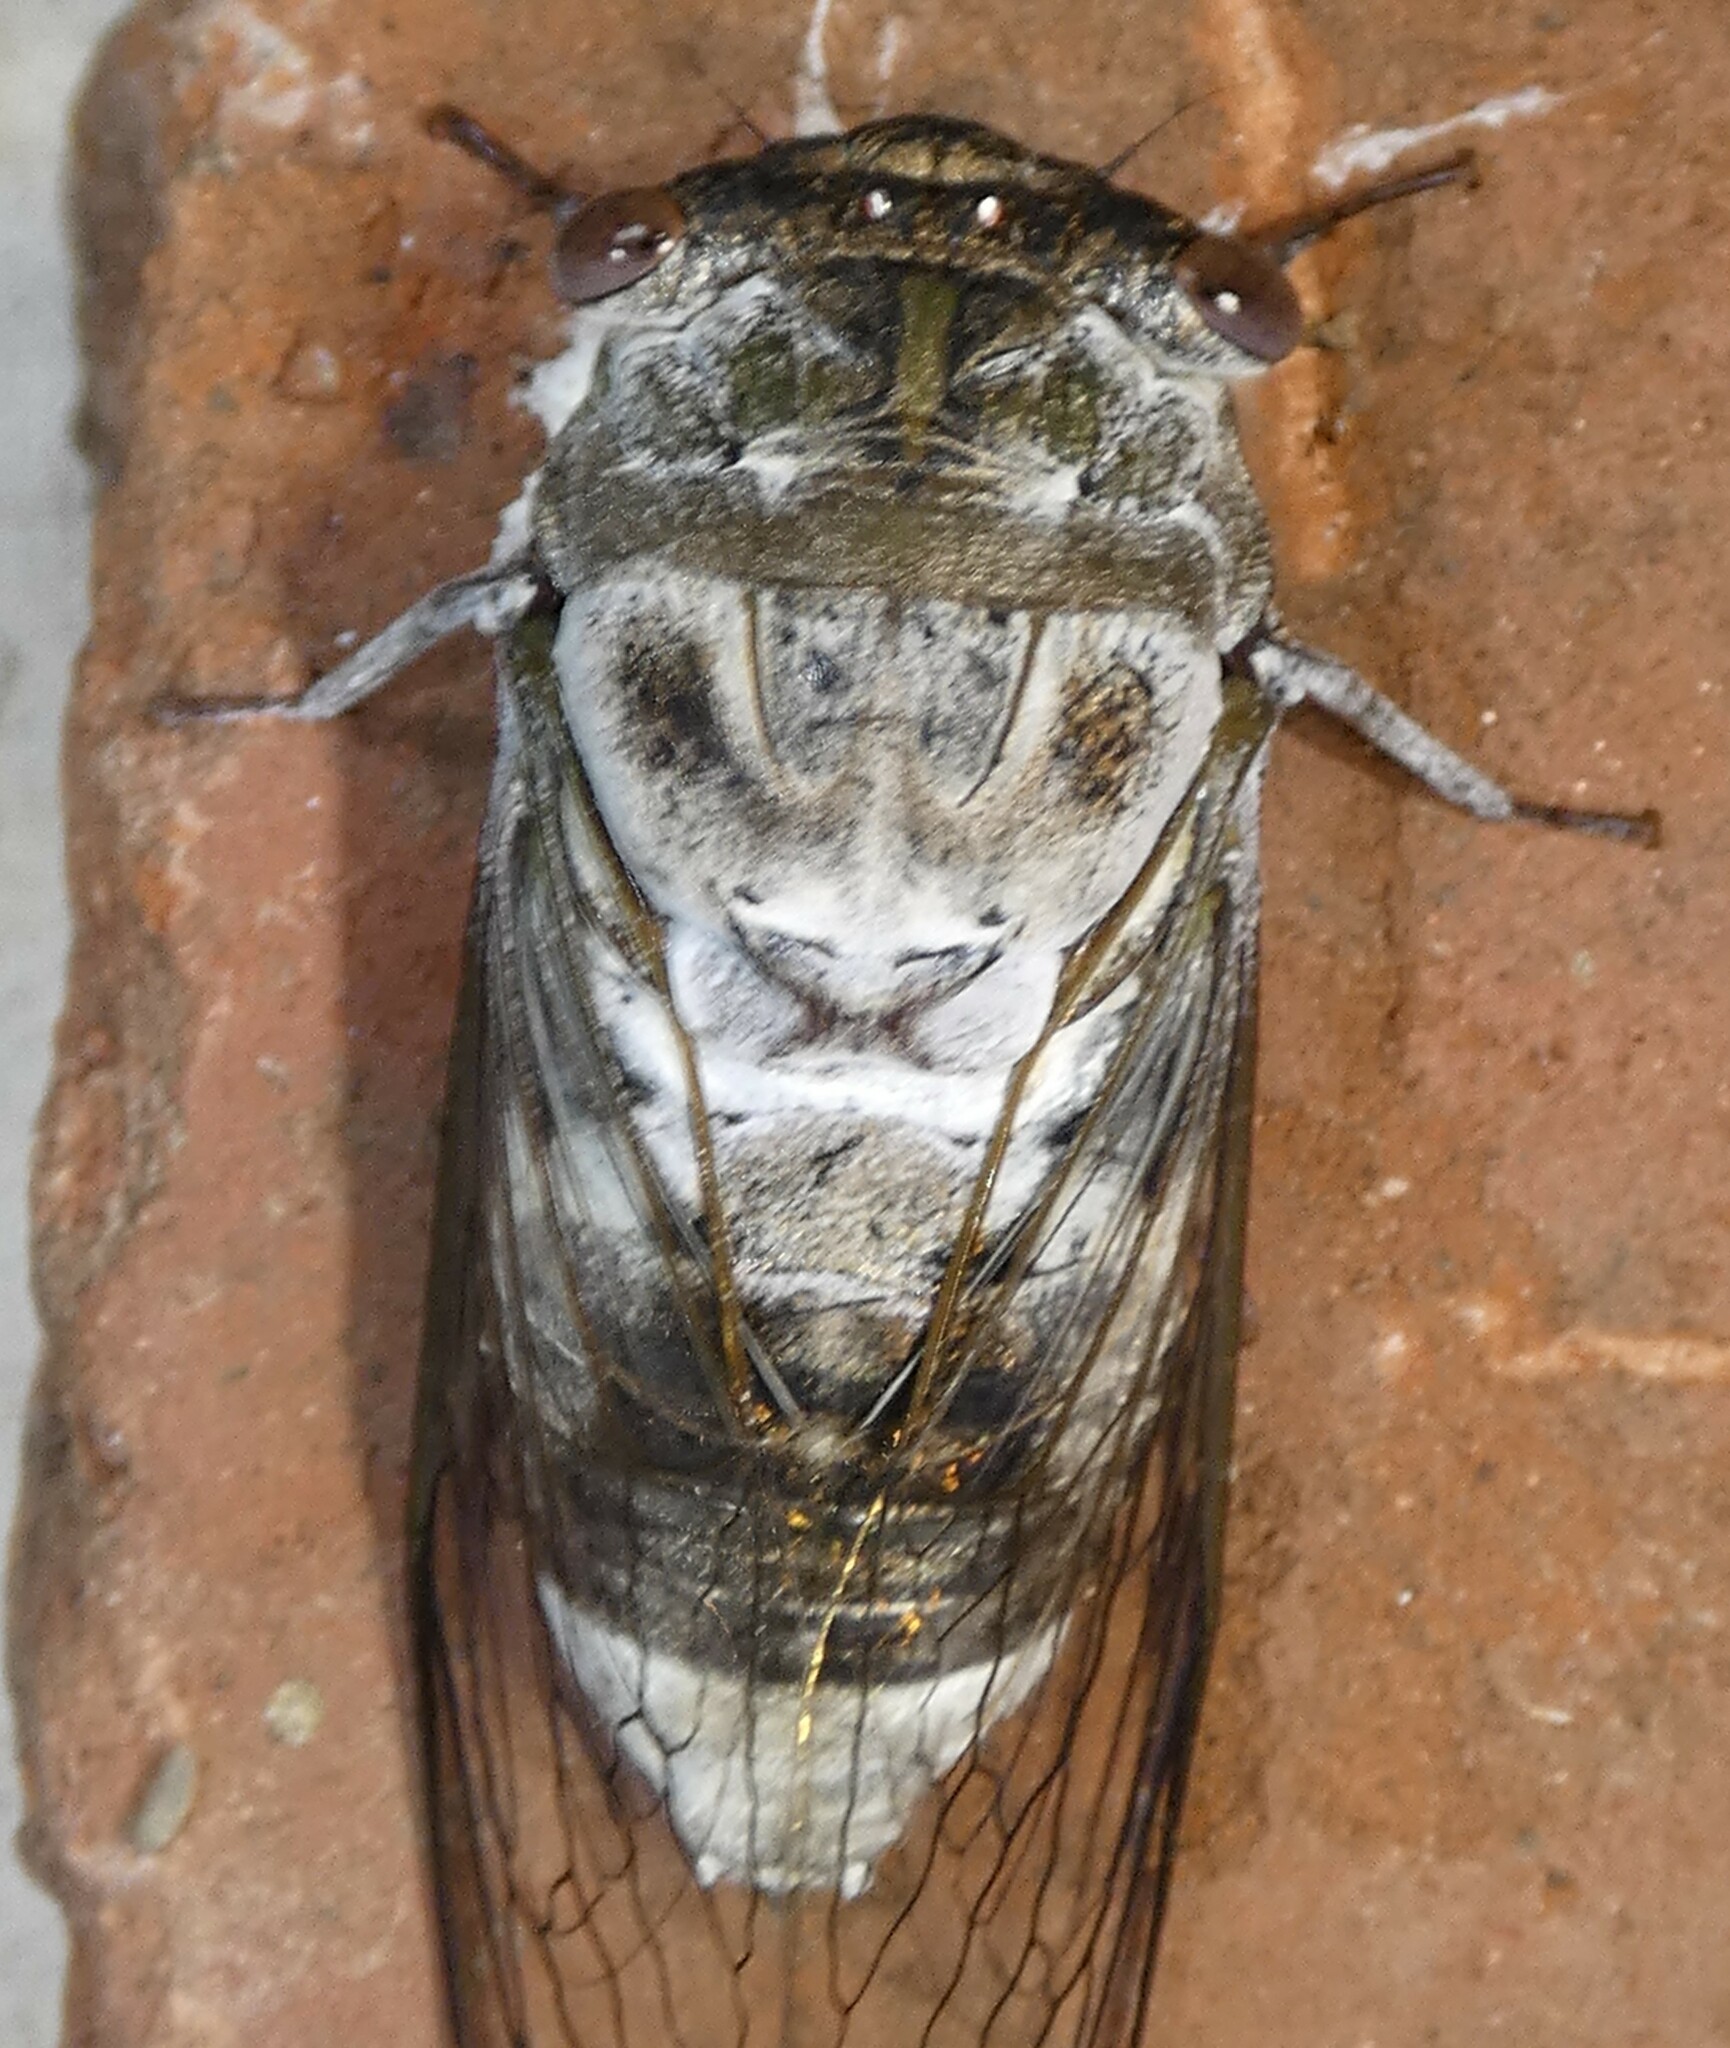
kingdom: Animalia
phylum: Arthropoda
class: Insecta
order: Hemiptera
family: Cicadidae
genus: Diceroprocta
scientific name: Diceroprocta grossa
